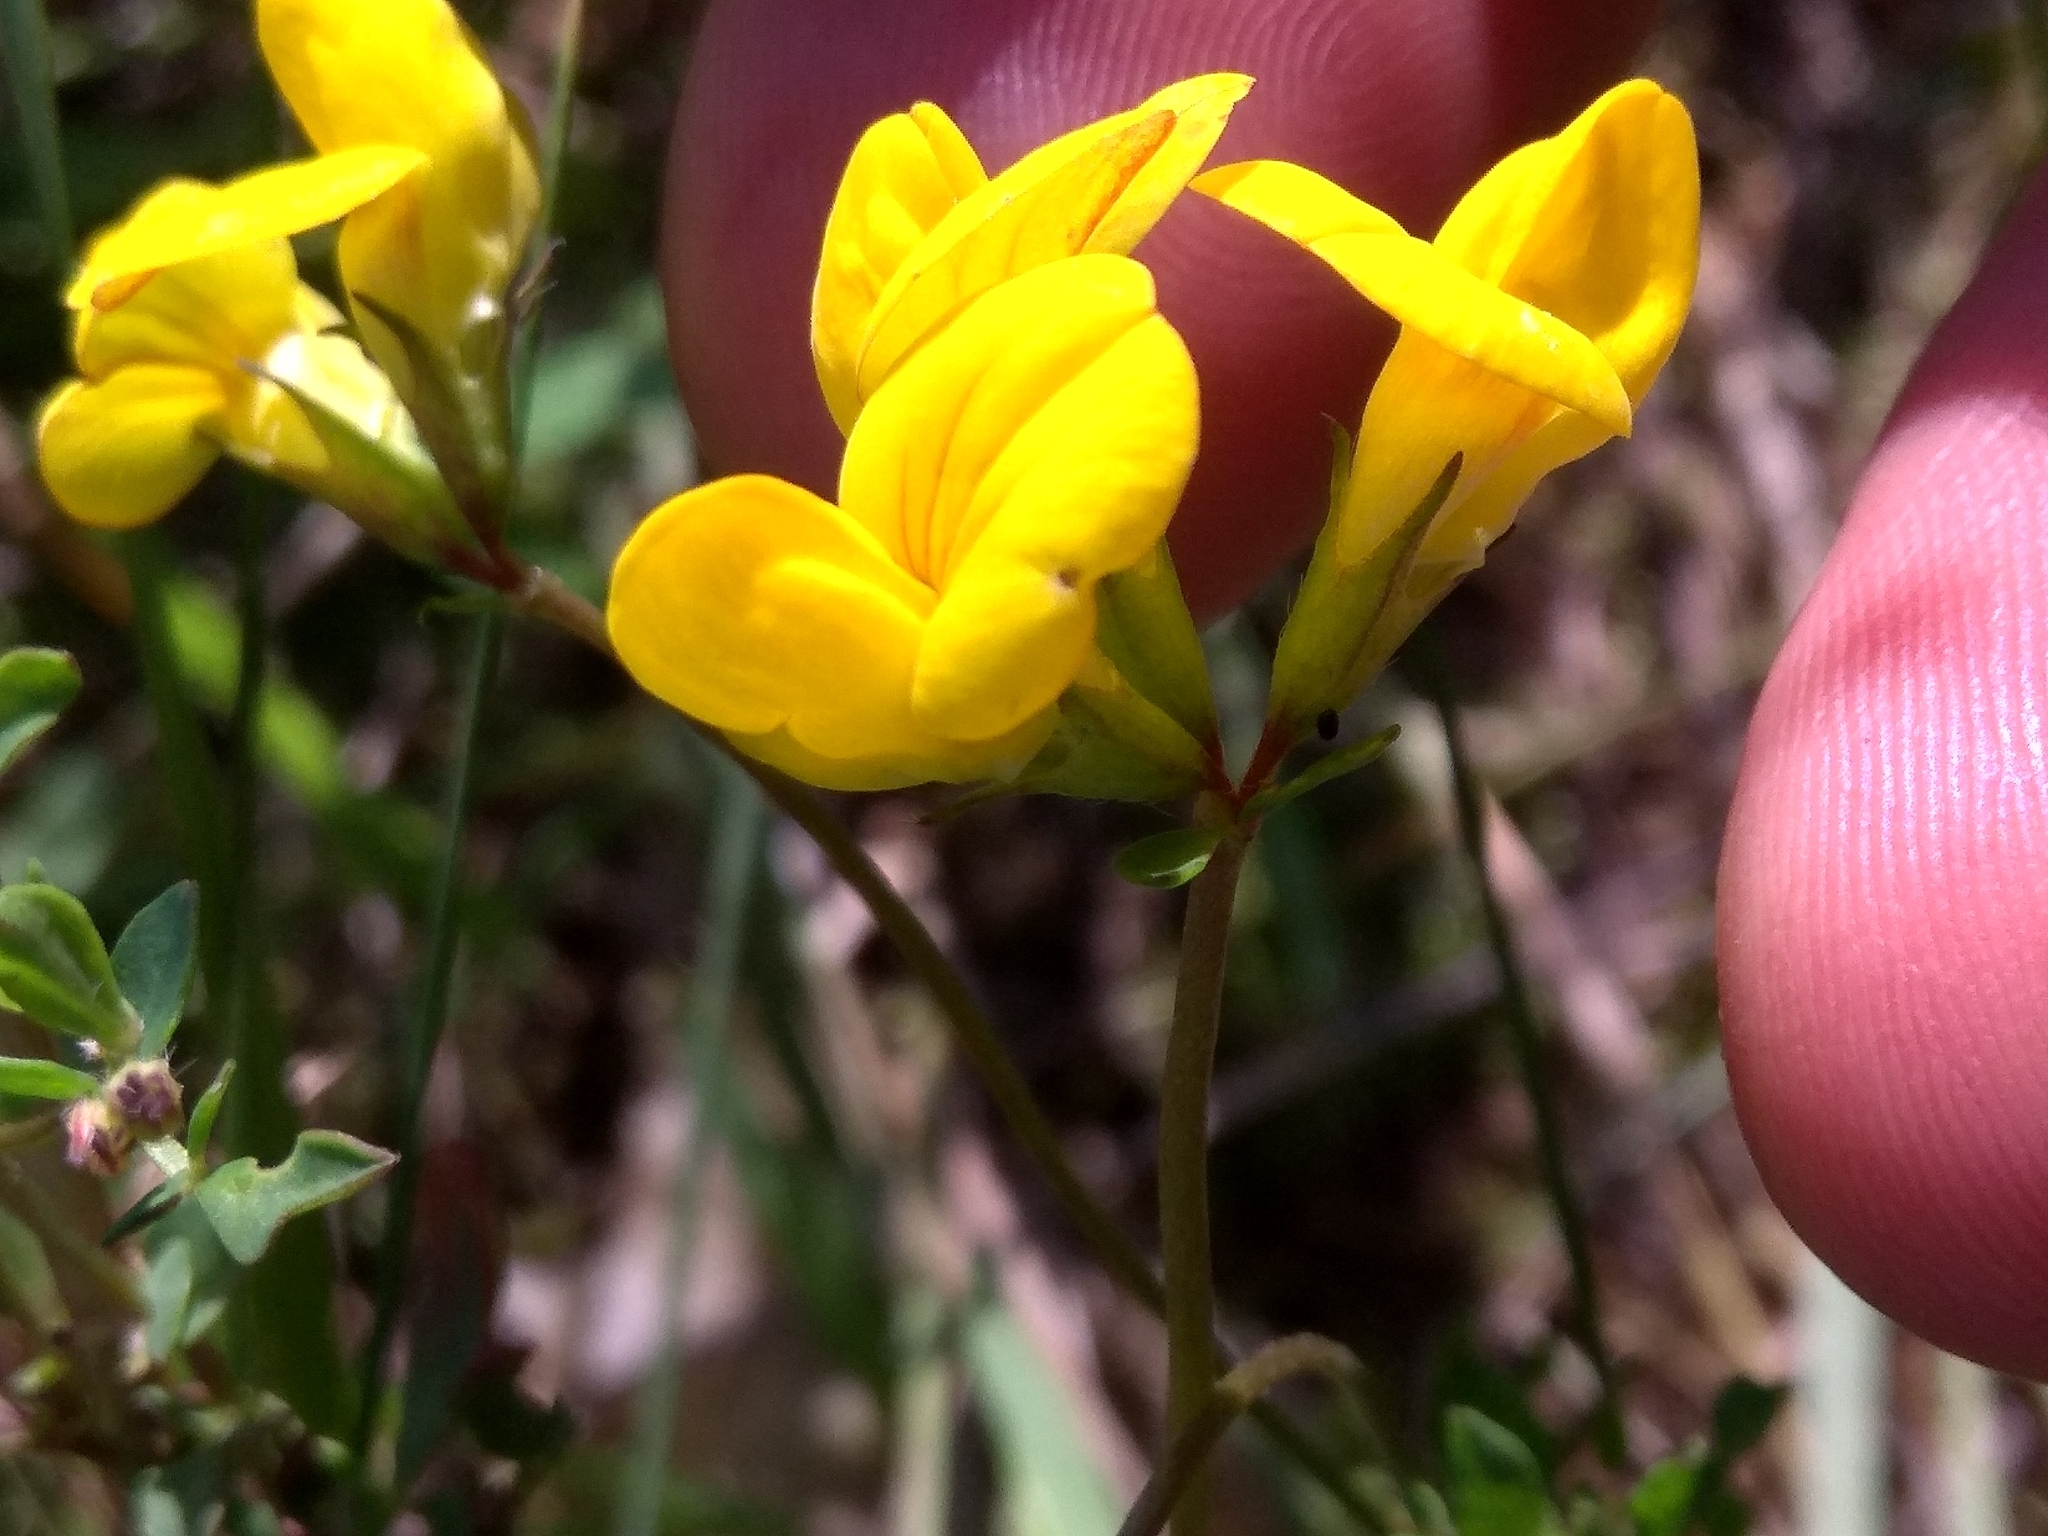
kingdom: Plantae
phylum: Tracheophyta
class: Magnoliopsida
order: Fabales
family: Fabaceae
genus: Lotus
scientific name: Lotus corniculatus
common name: Common bird's-foot-trefoil
